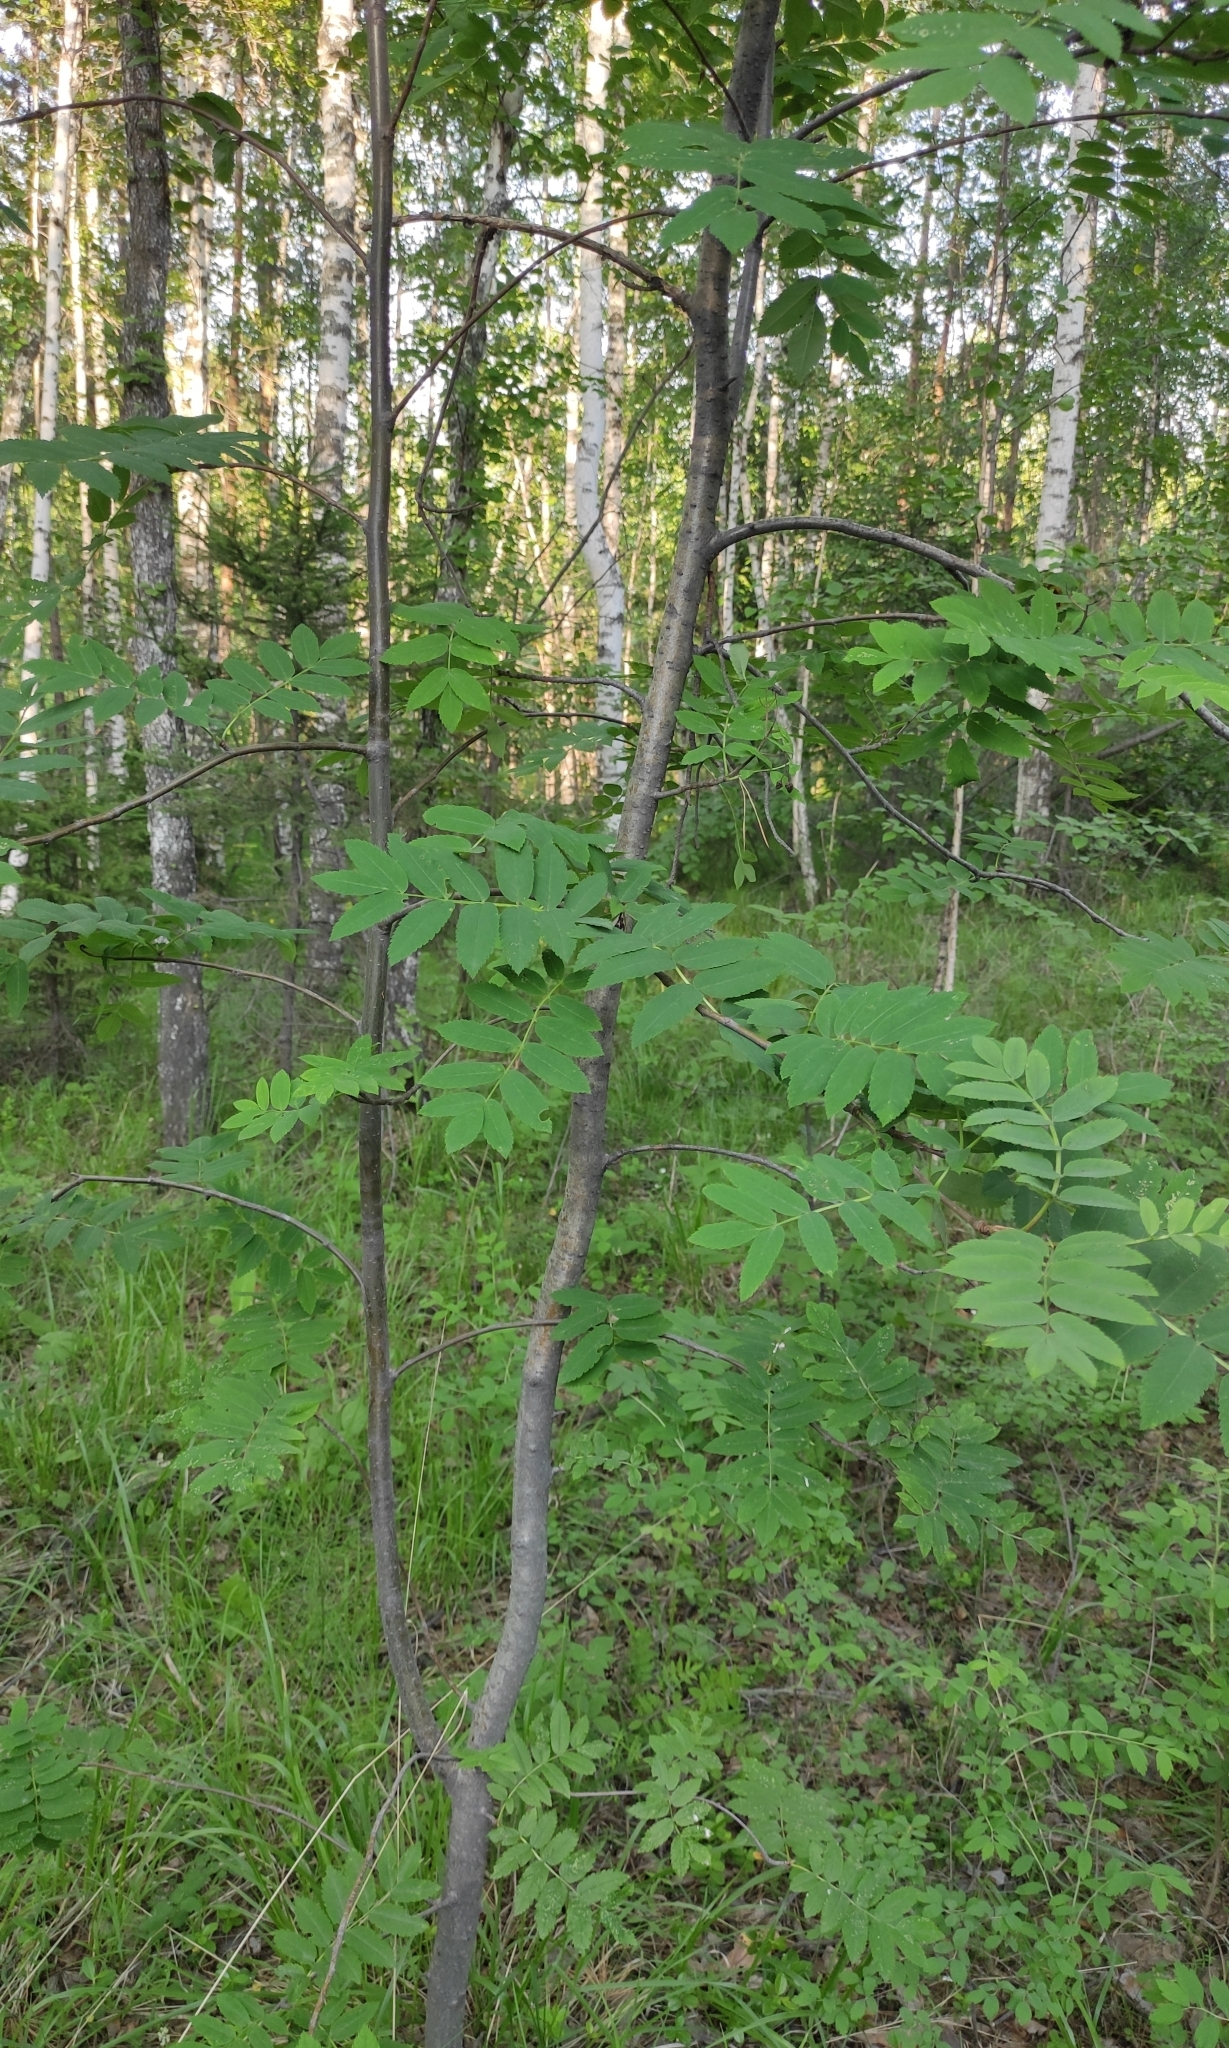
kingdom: Plantae
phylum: Tracheophyta
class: Magnoliopsida
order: Rosales
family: Rosaceae
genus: Sorbus
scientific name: Sorbus aucuparia
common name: Rowan
